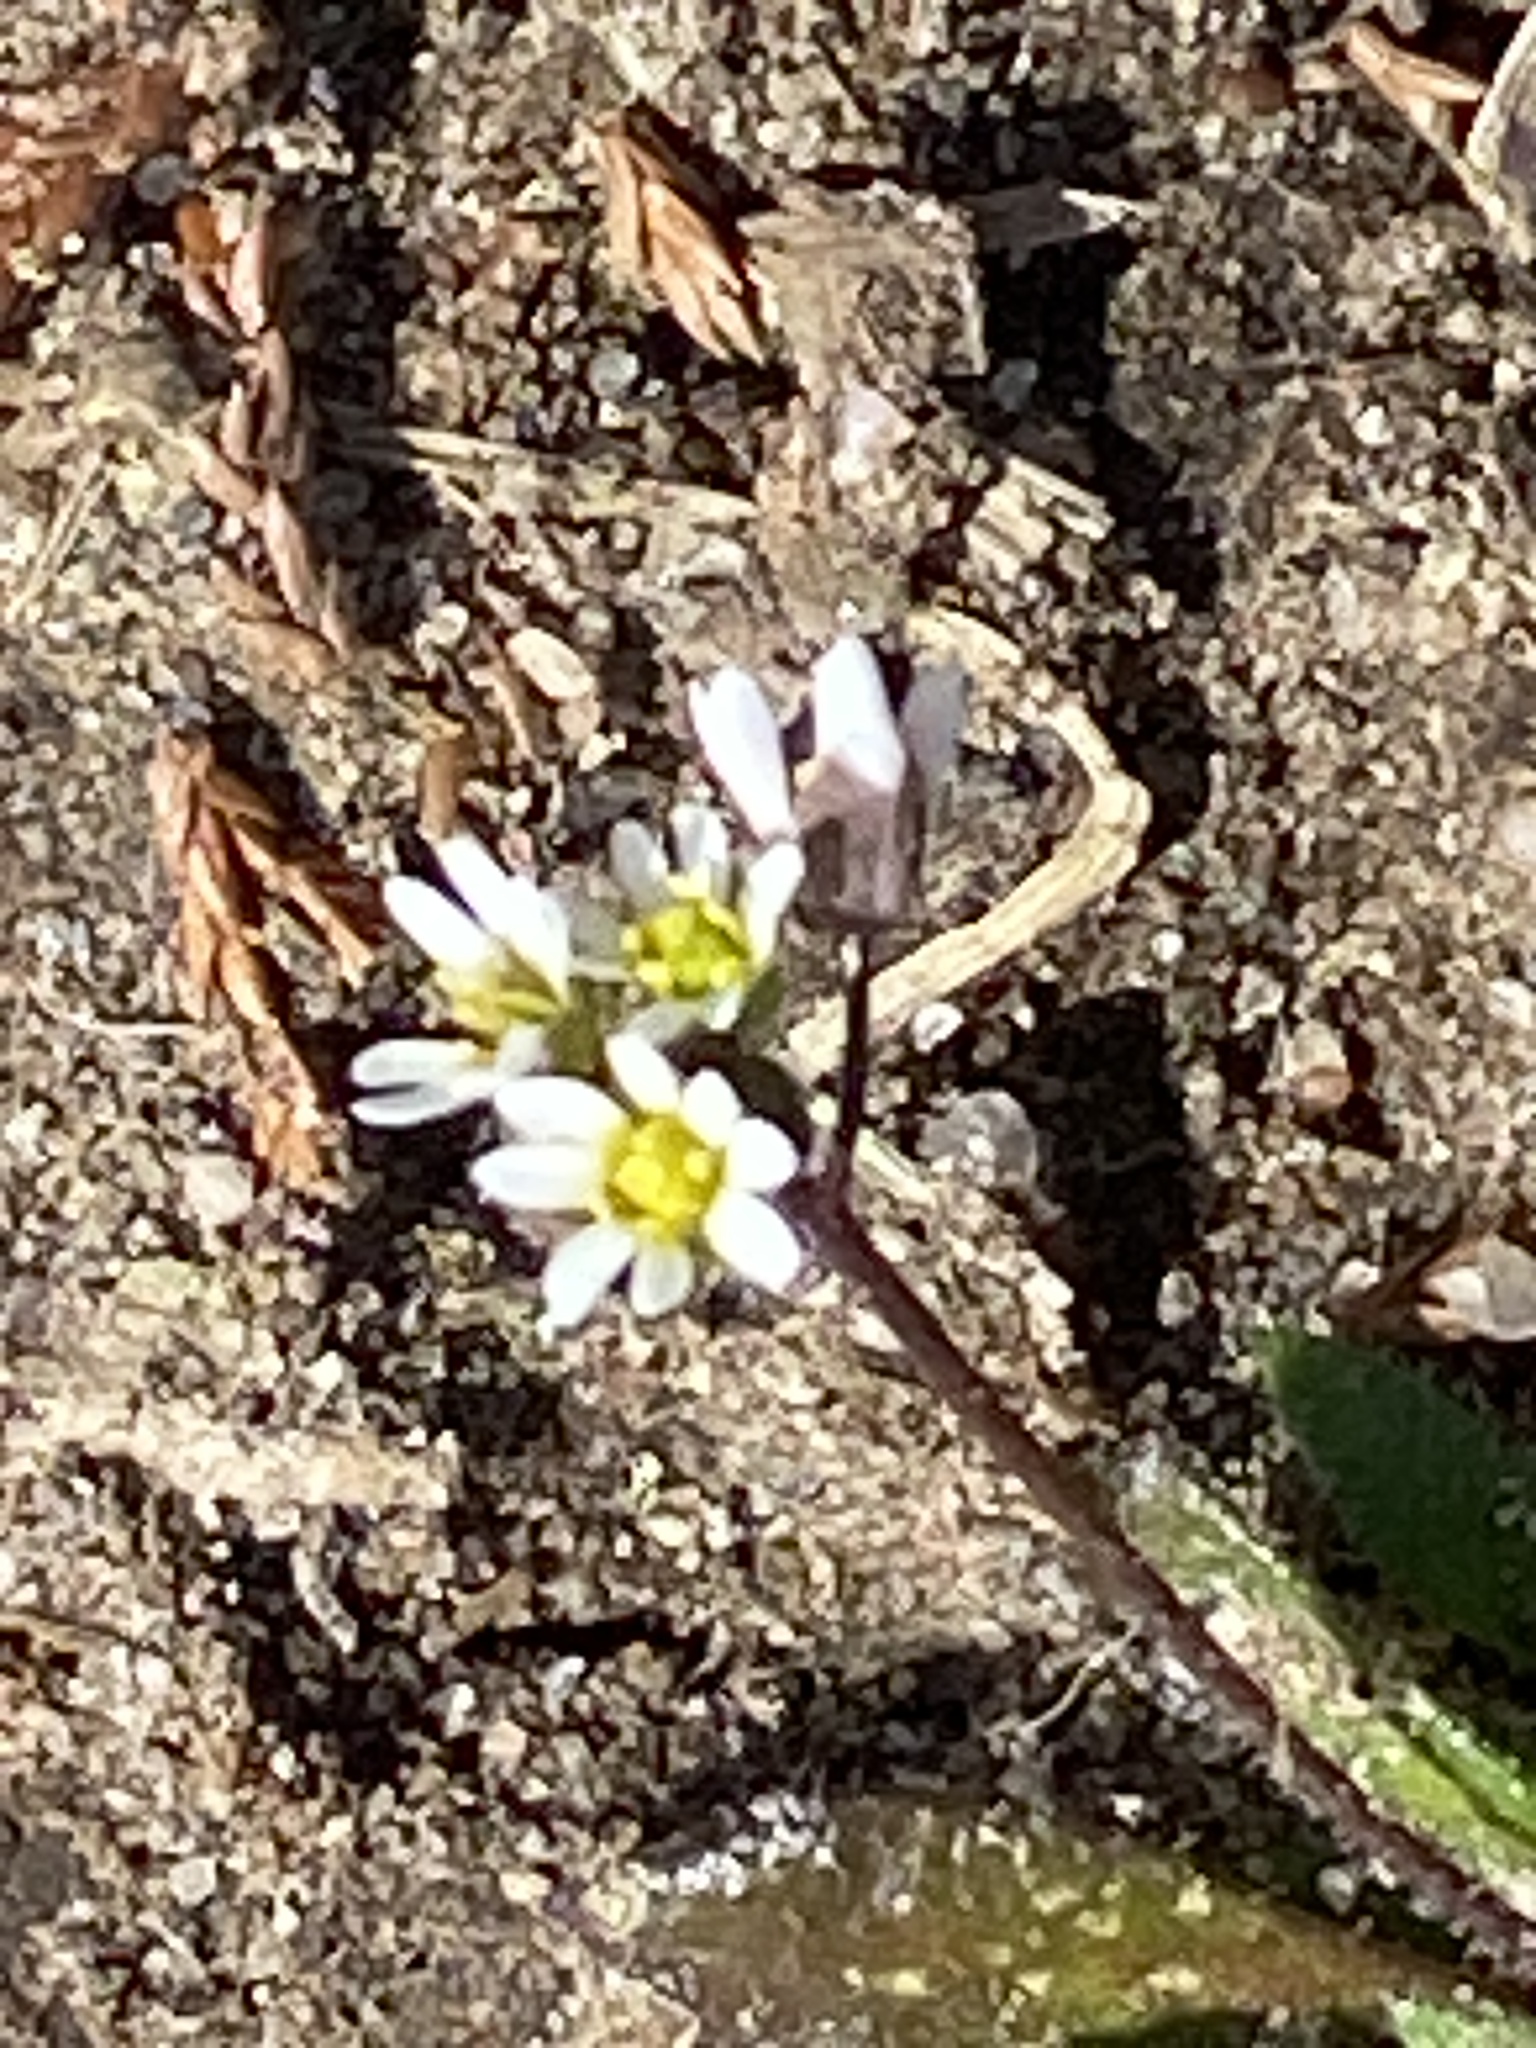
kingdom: Plantae
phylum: Tracheophyta
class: Magnoliopsida
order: Brassicales
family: Brassicaceae
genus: Draba
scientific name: Draba verna
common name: Spring draba
